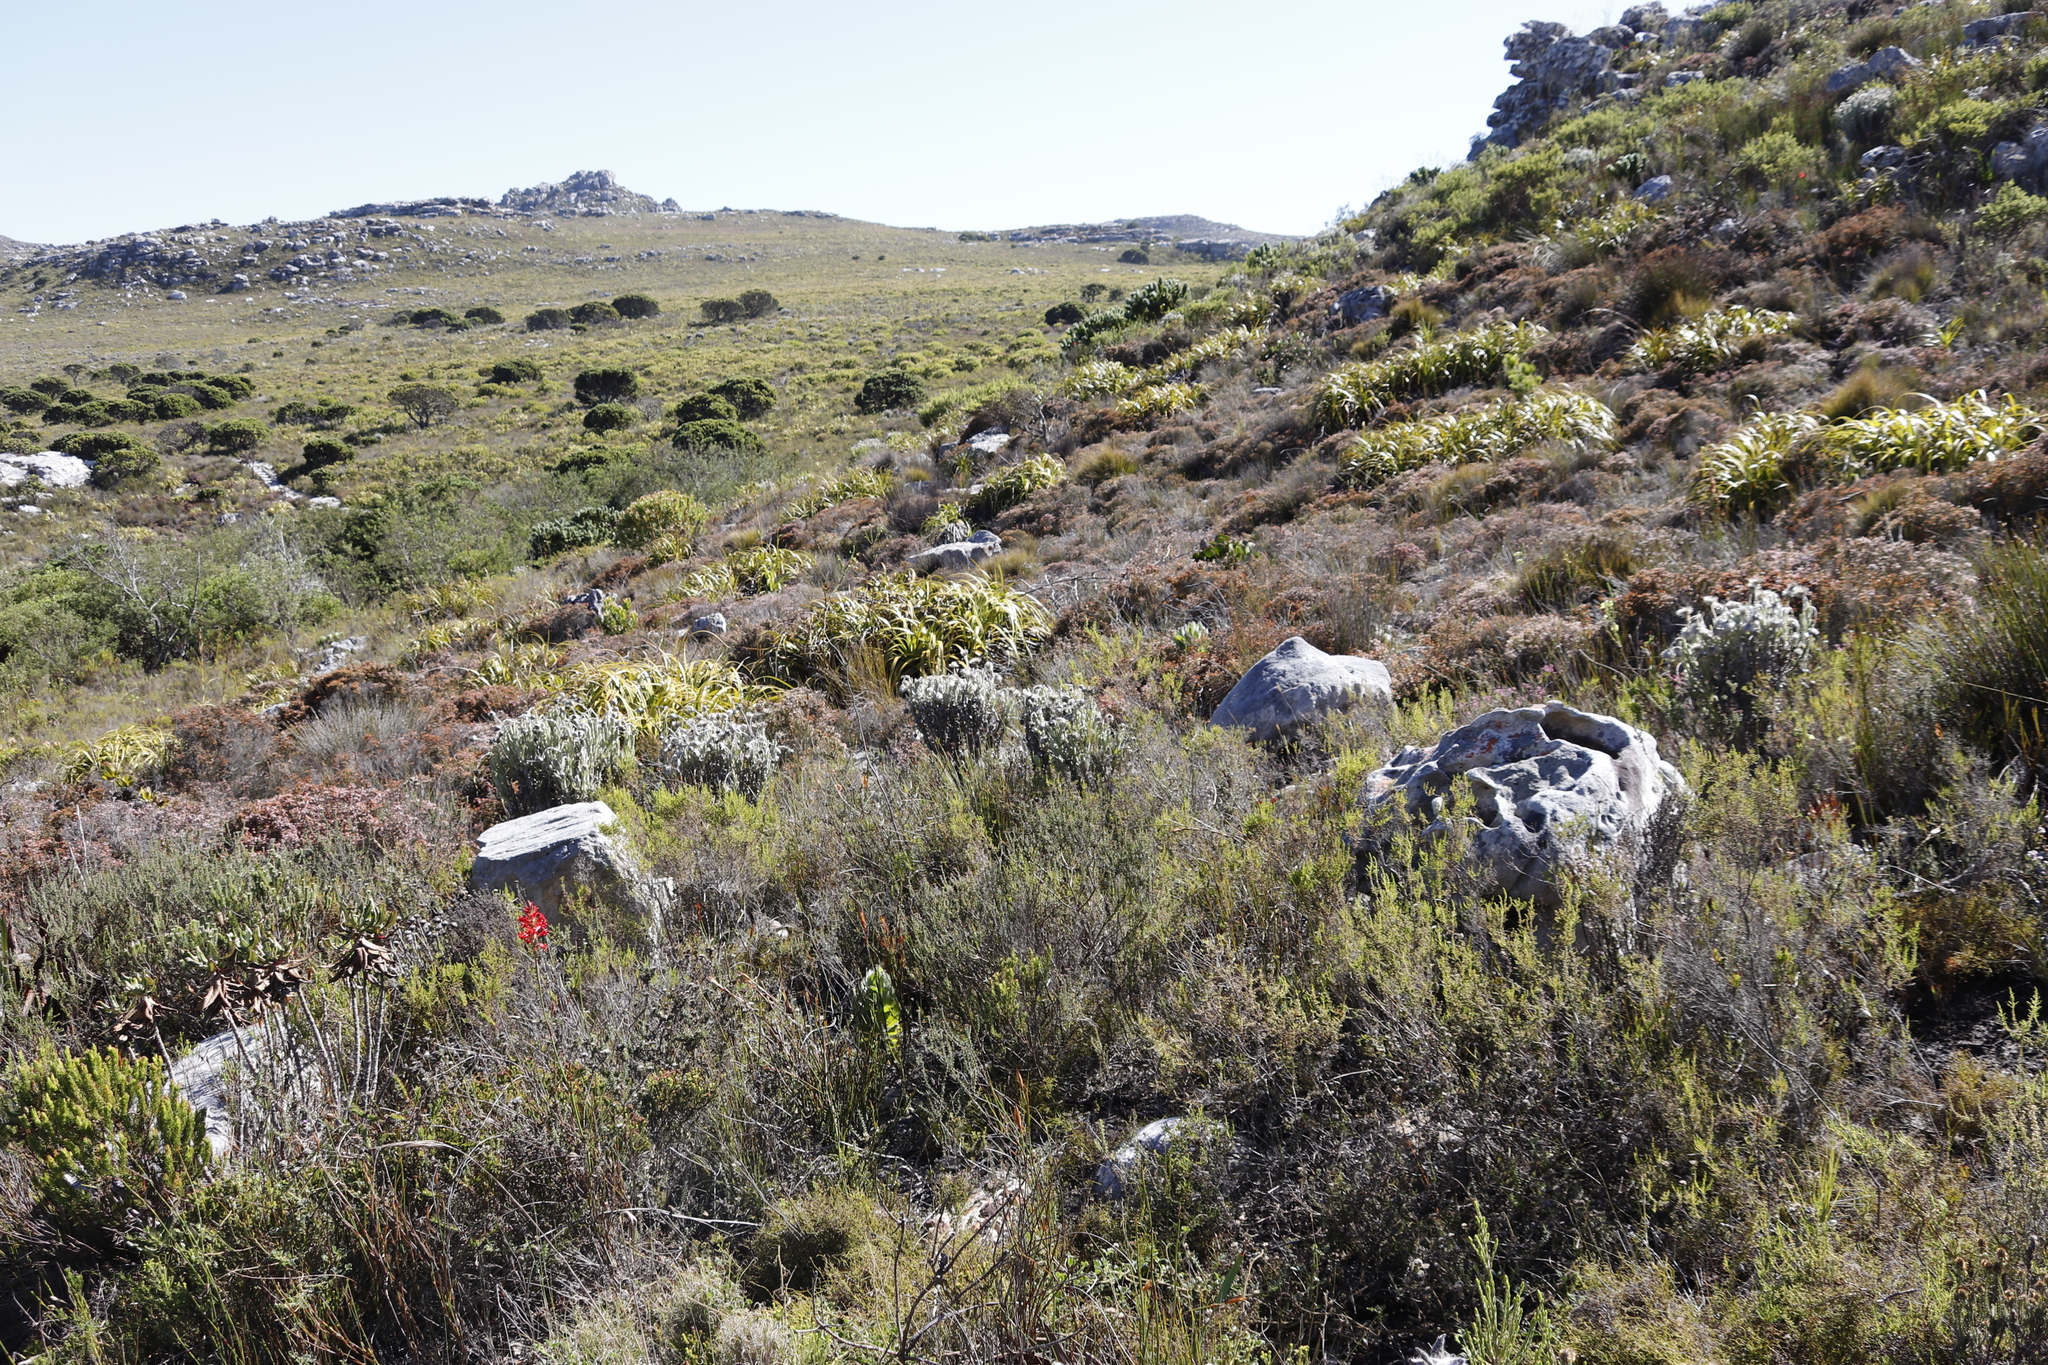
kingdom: Plantae
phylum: Tracheophyta
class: Magnoliopsida
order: Asterales
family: Asteraceae
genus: Syncarpha
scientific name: Syncarpha vestita
